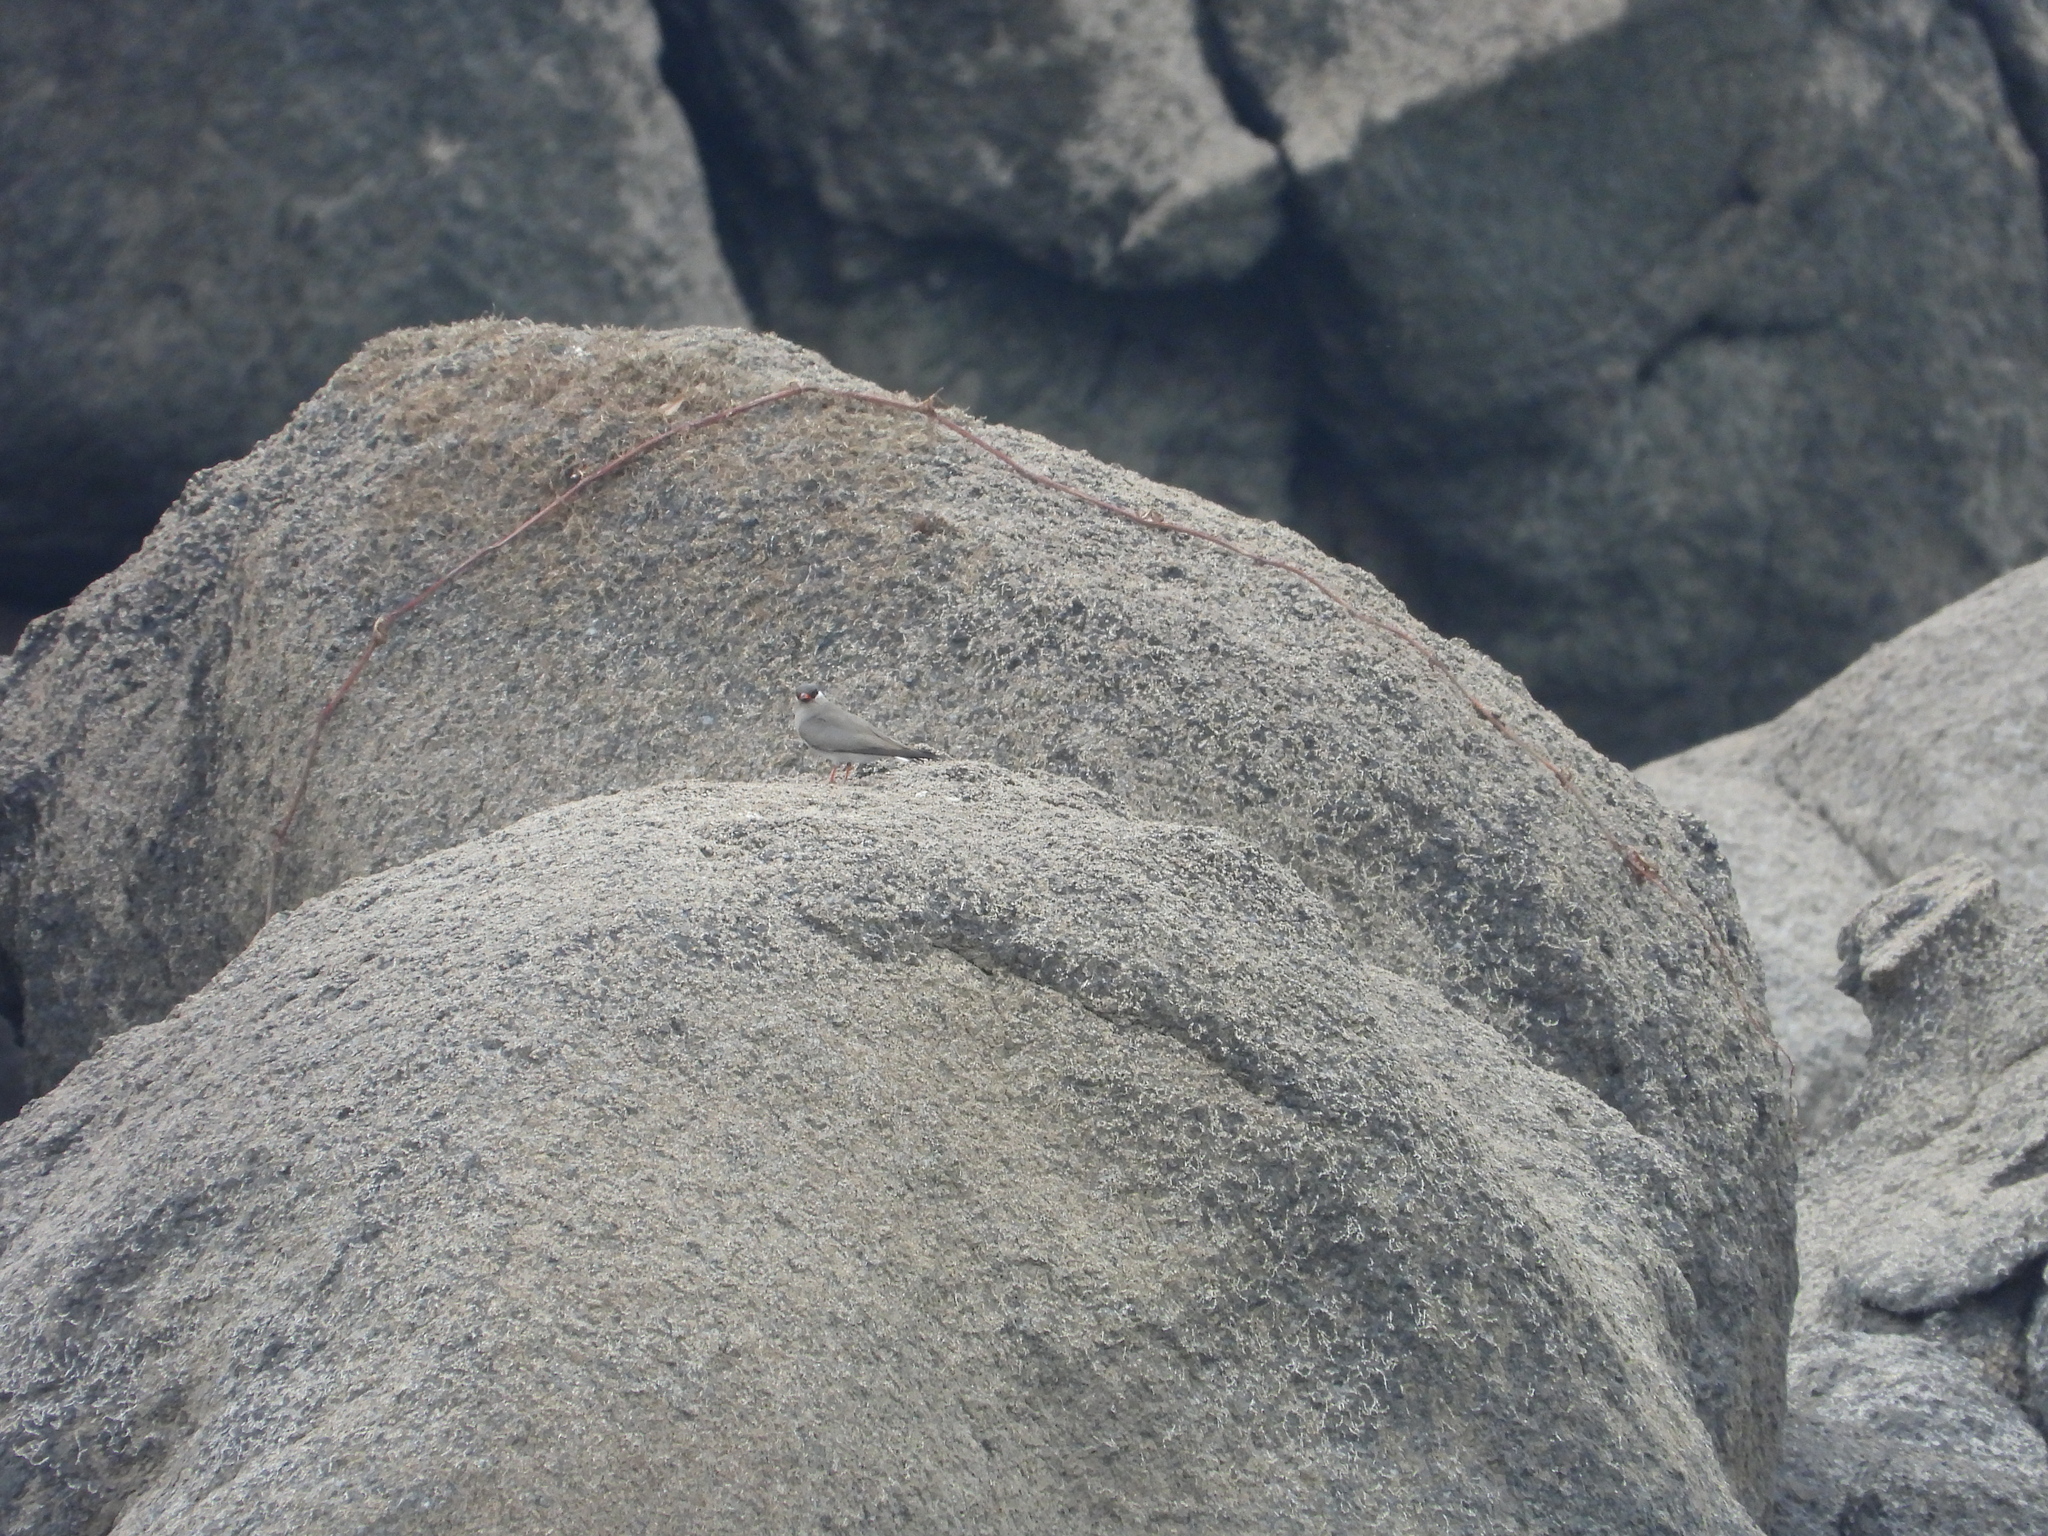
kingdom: Animalia
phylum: Chordata
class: Aves
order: Charadriiformes
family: Glareolidae
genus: Glareola
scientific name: Glareola nuchalis
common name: Rock pratincole
